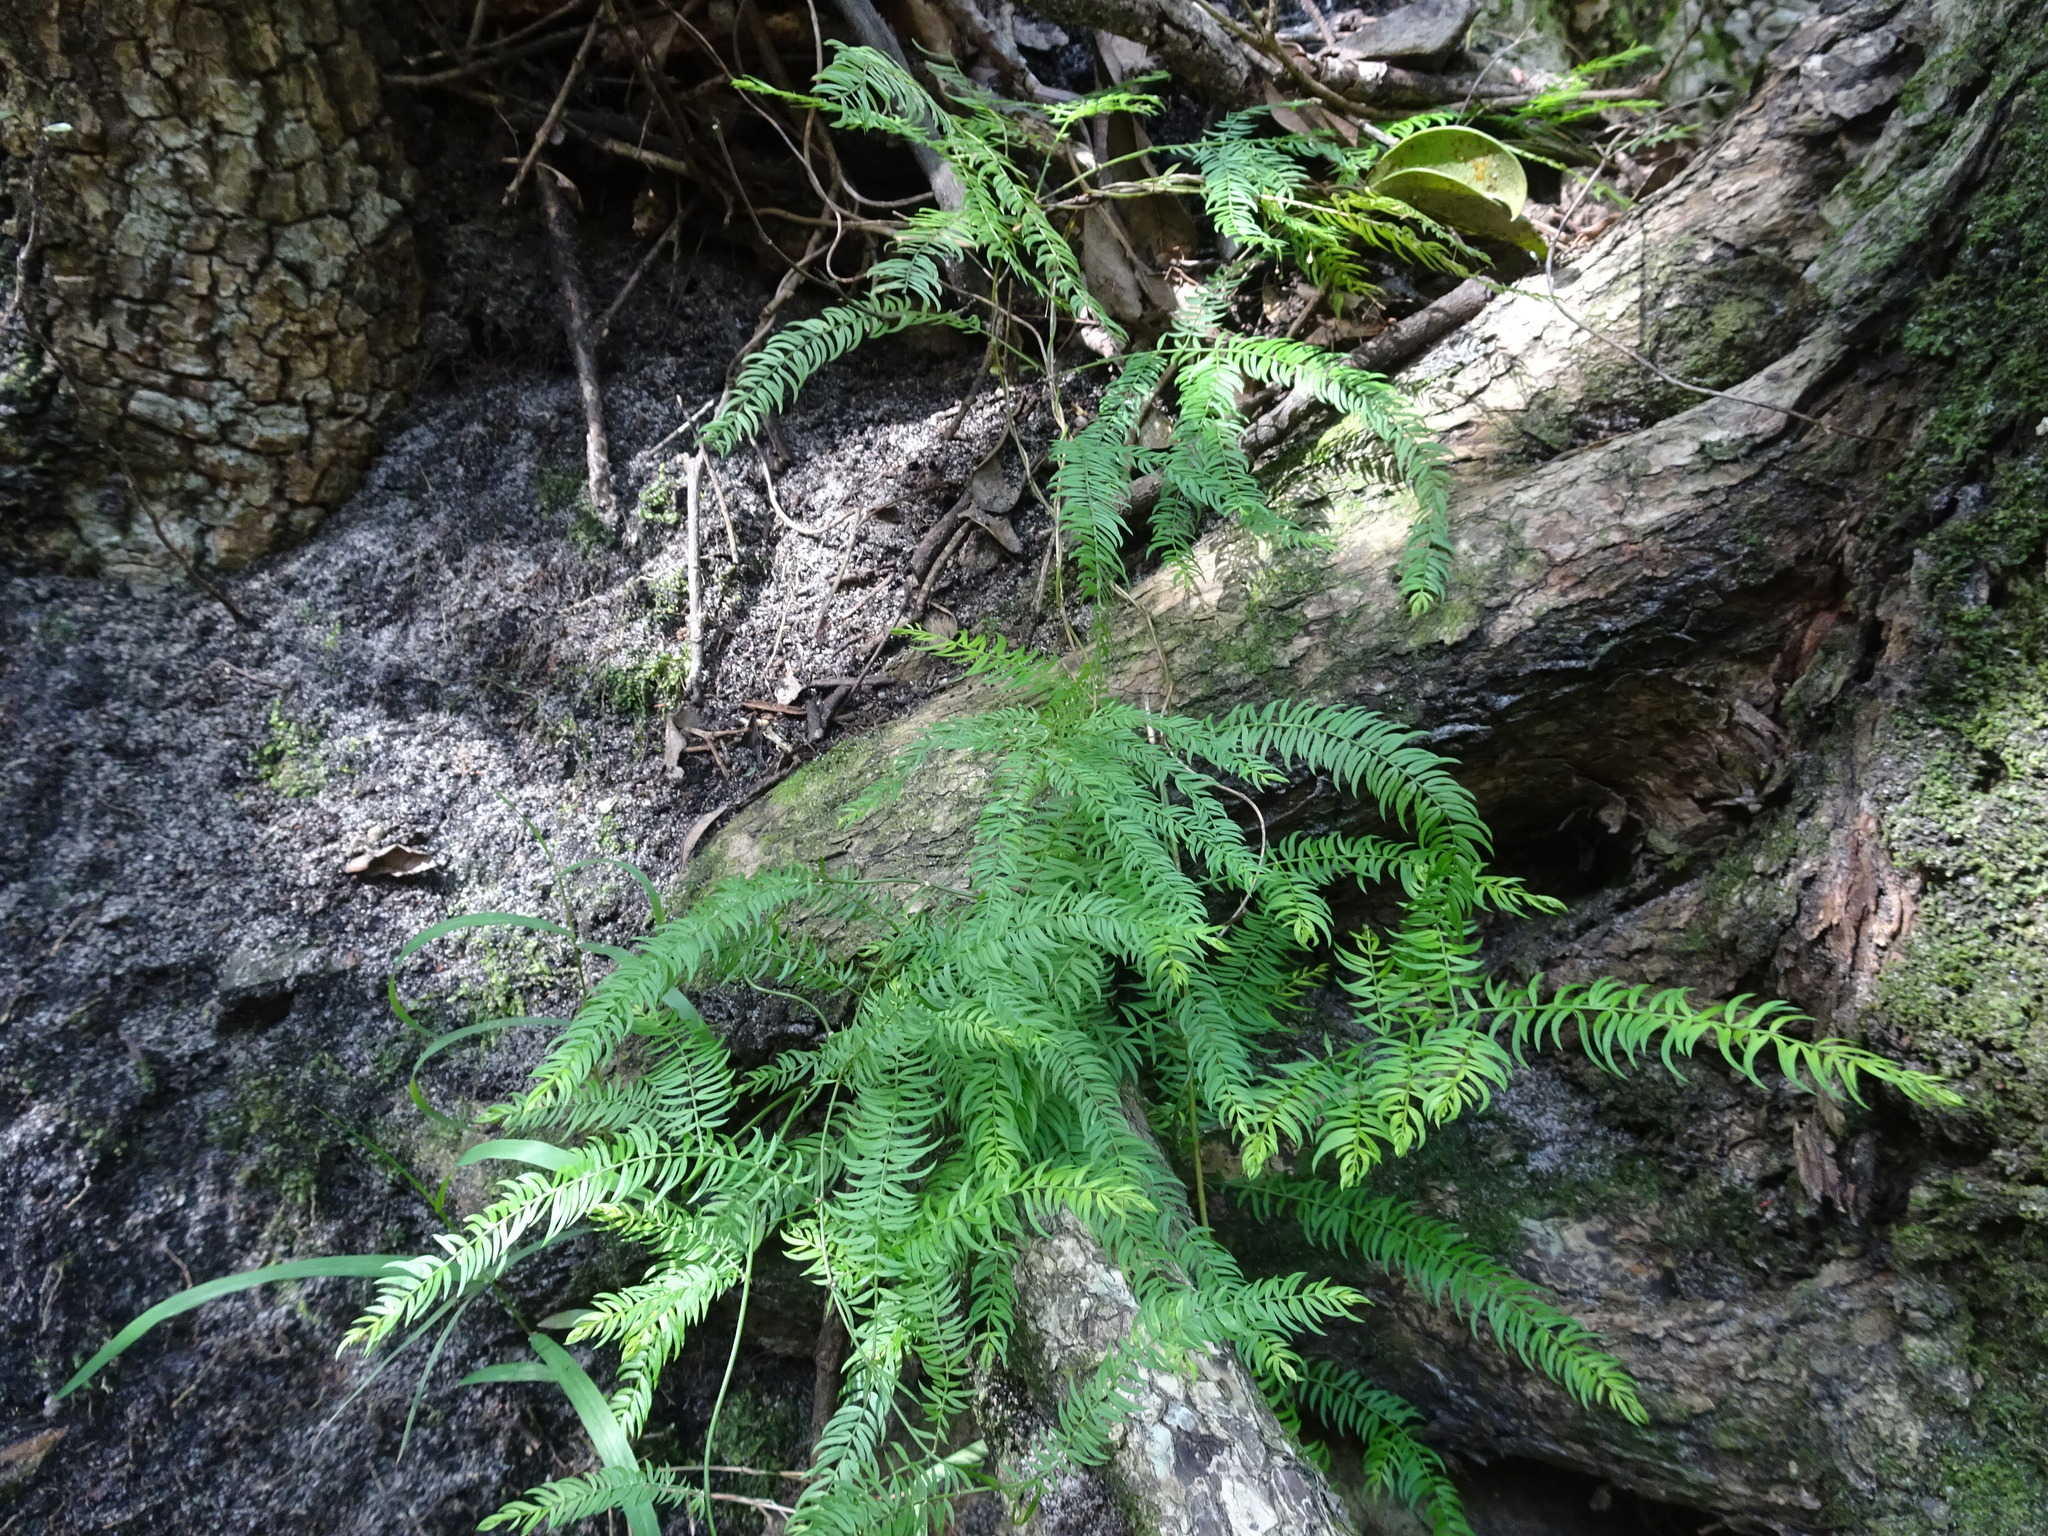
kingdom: Plantae
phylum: Tracheophyta
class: Liliopsida
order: Asparagales
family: Asparagaceae
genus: Asparagus
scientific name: Asparagus scandens
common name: Asparagus-fern
